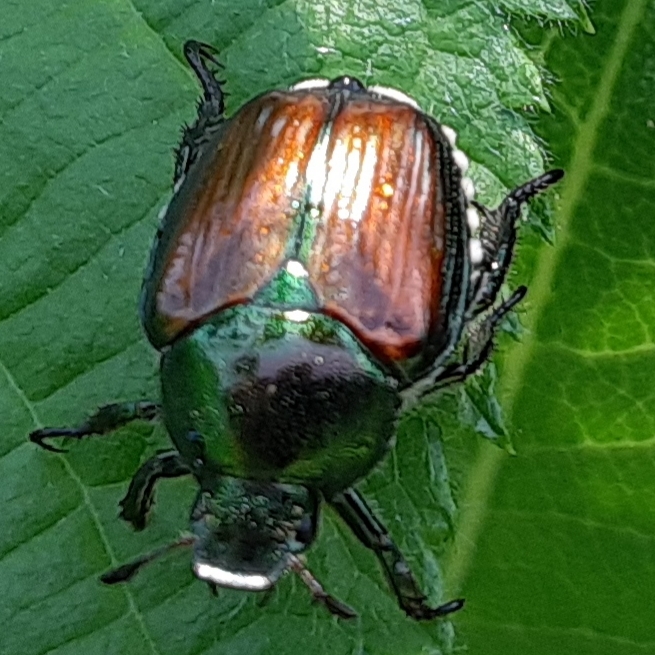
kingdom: Animalia
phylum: Arthropoda
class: Insecta
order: Coleoptera
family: Scarabaeidae
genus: Popillia
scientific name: Popillia japonica
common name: Japanese beetle
